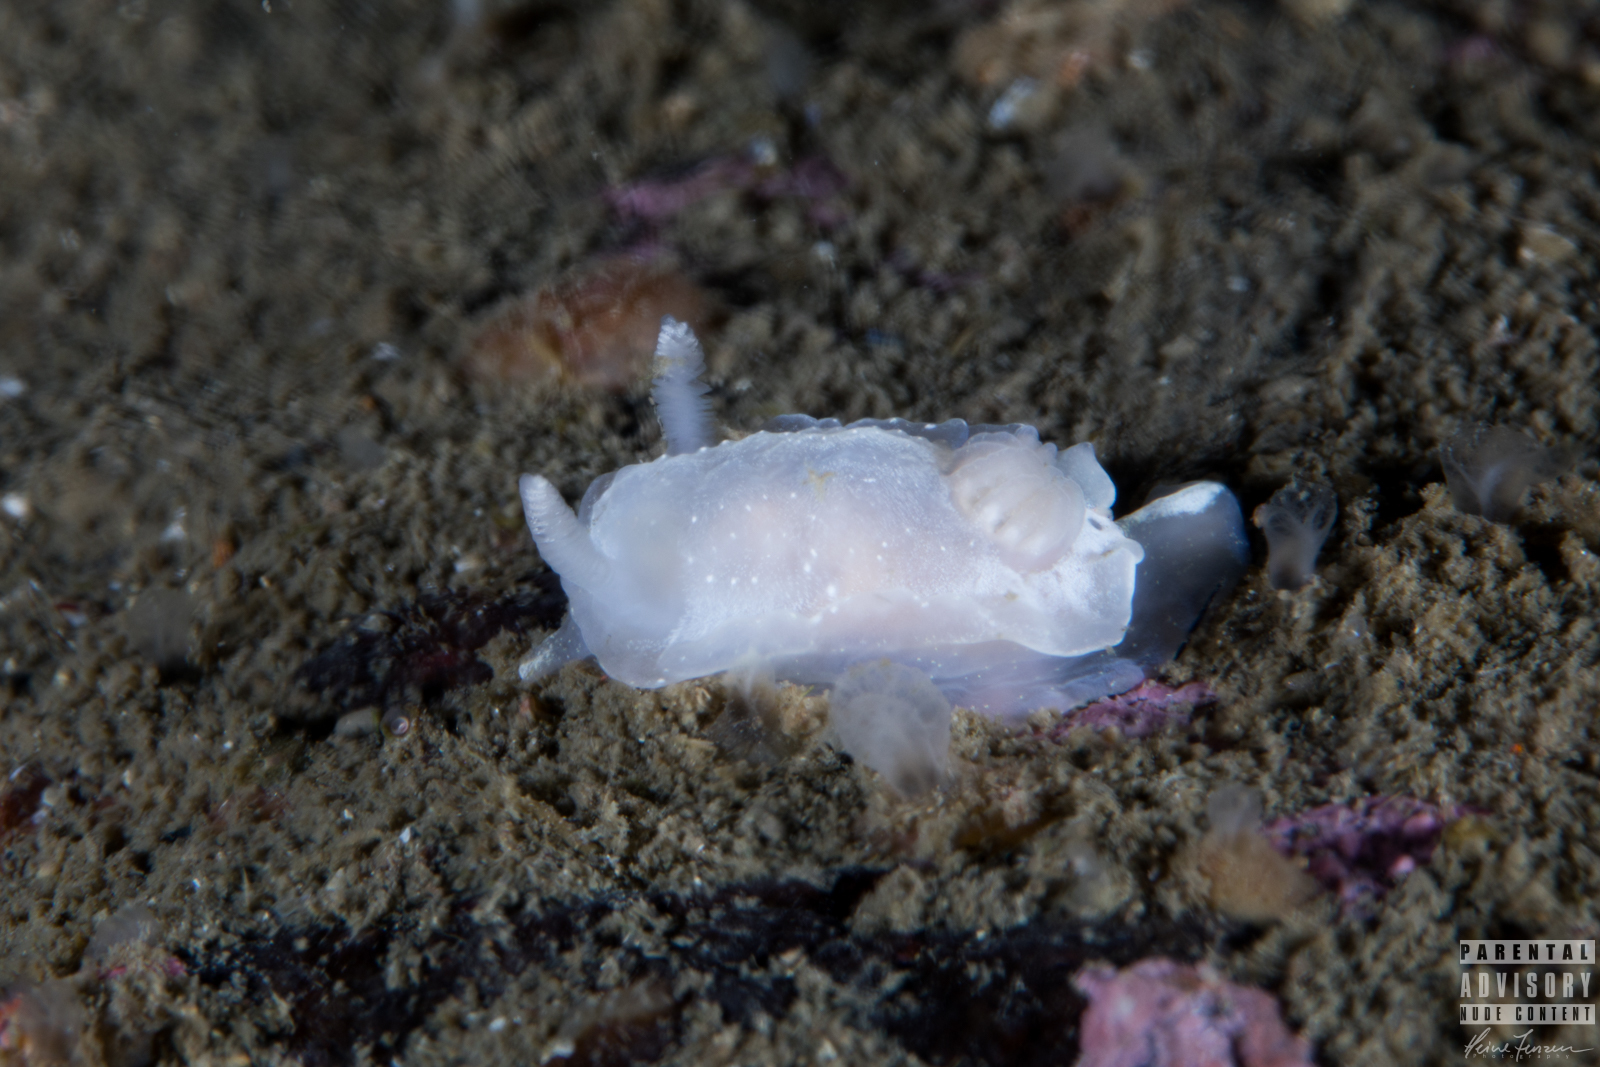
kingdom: Animalia
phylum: Mollusca
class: Gastropoda
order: Nudibranchia
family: Goniodorididae
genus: Okenia
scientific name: Okenia
